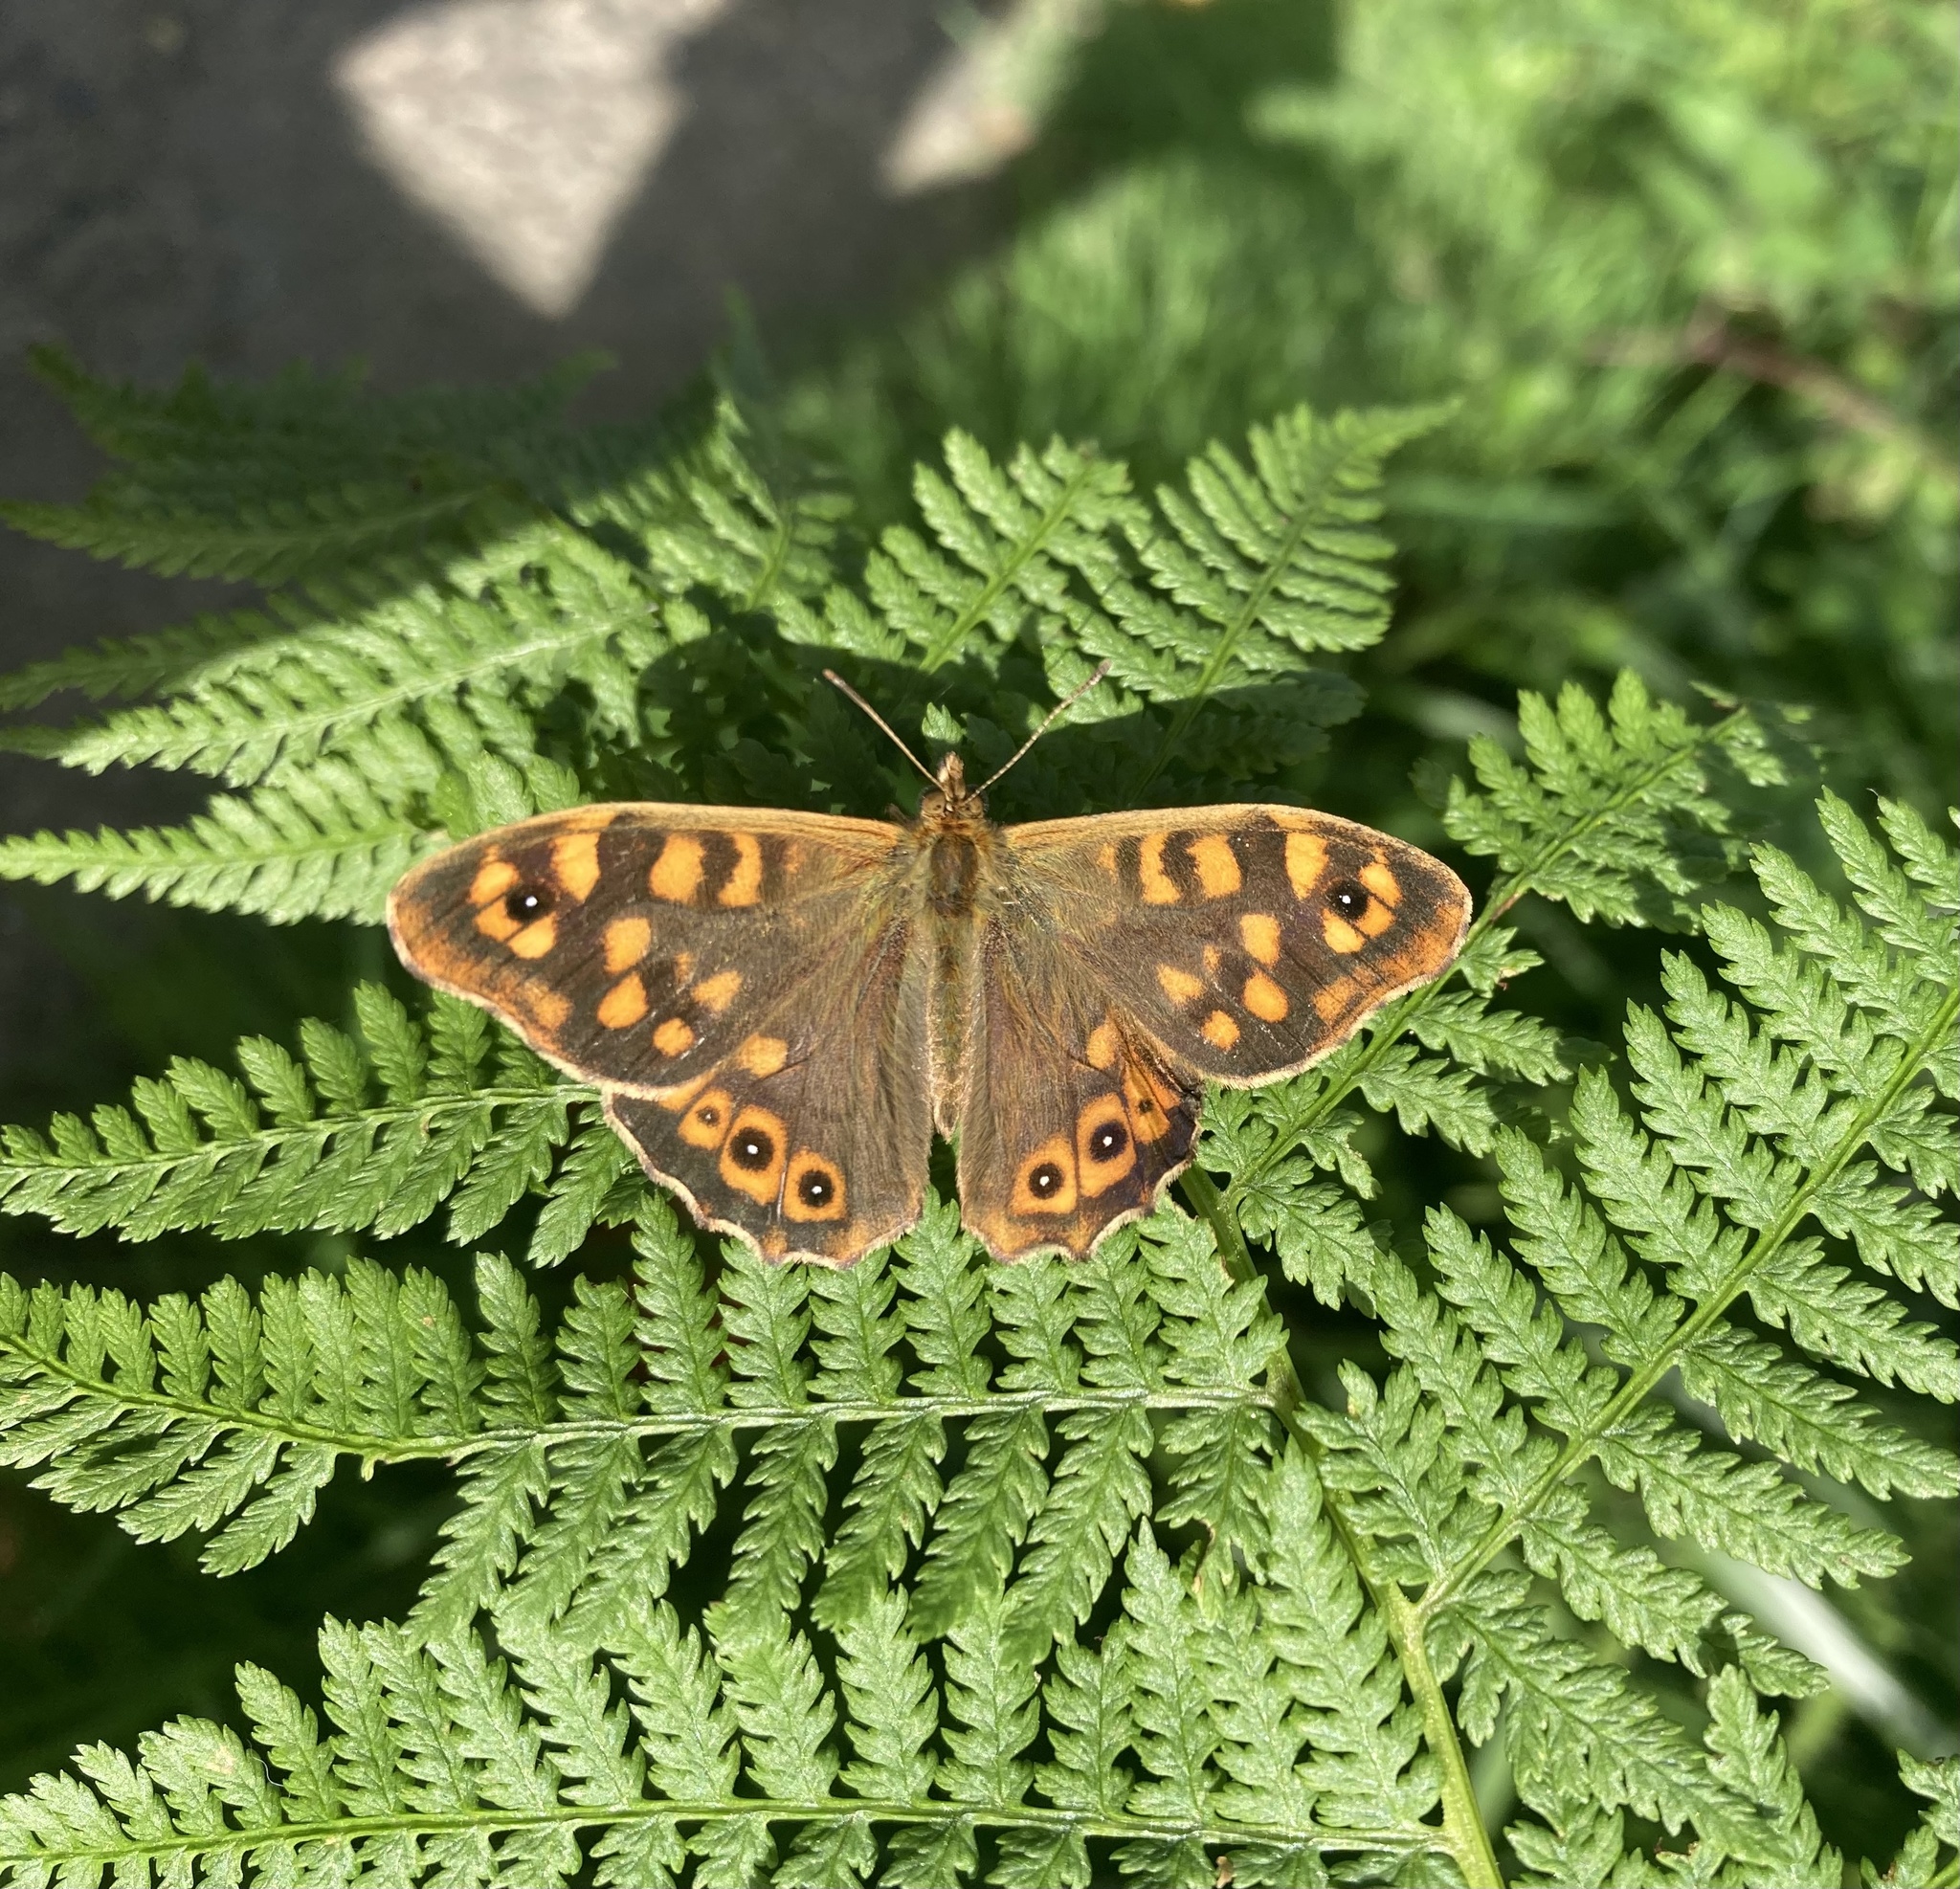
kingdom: Animalia
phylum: Arthropoda
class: Insecta
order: Lepidoptera
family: Nymphalidae
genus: Pararge
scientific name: Pararge aegeria
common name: Speckled wood
